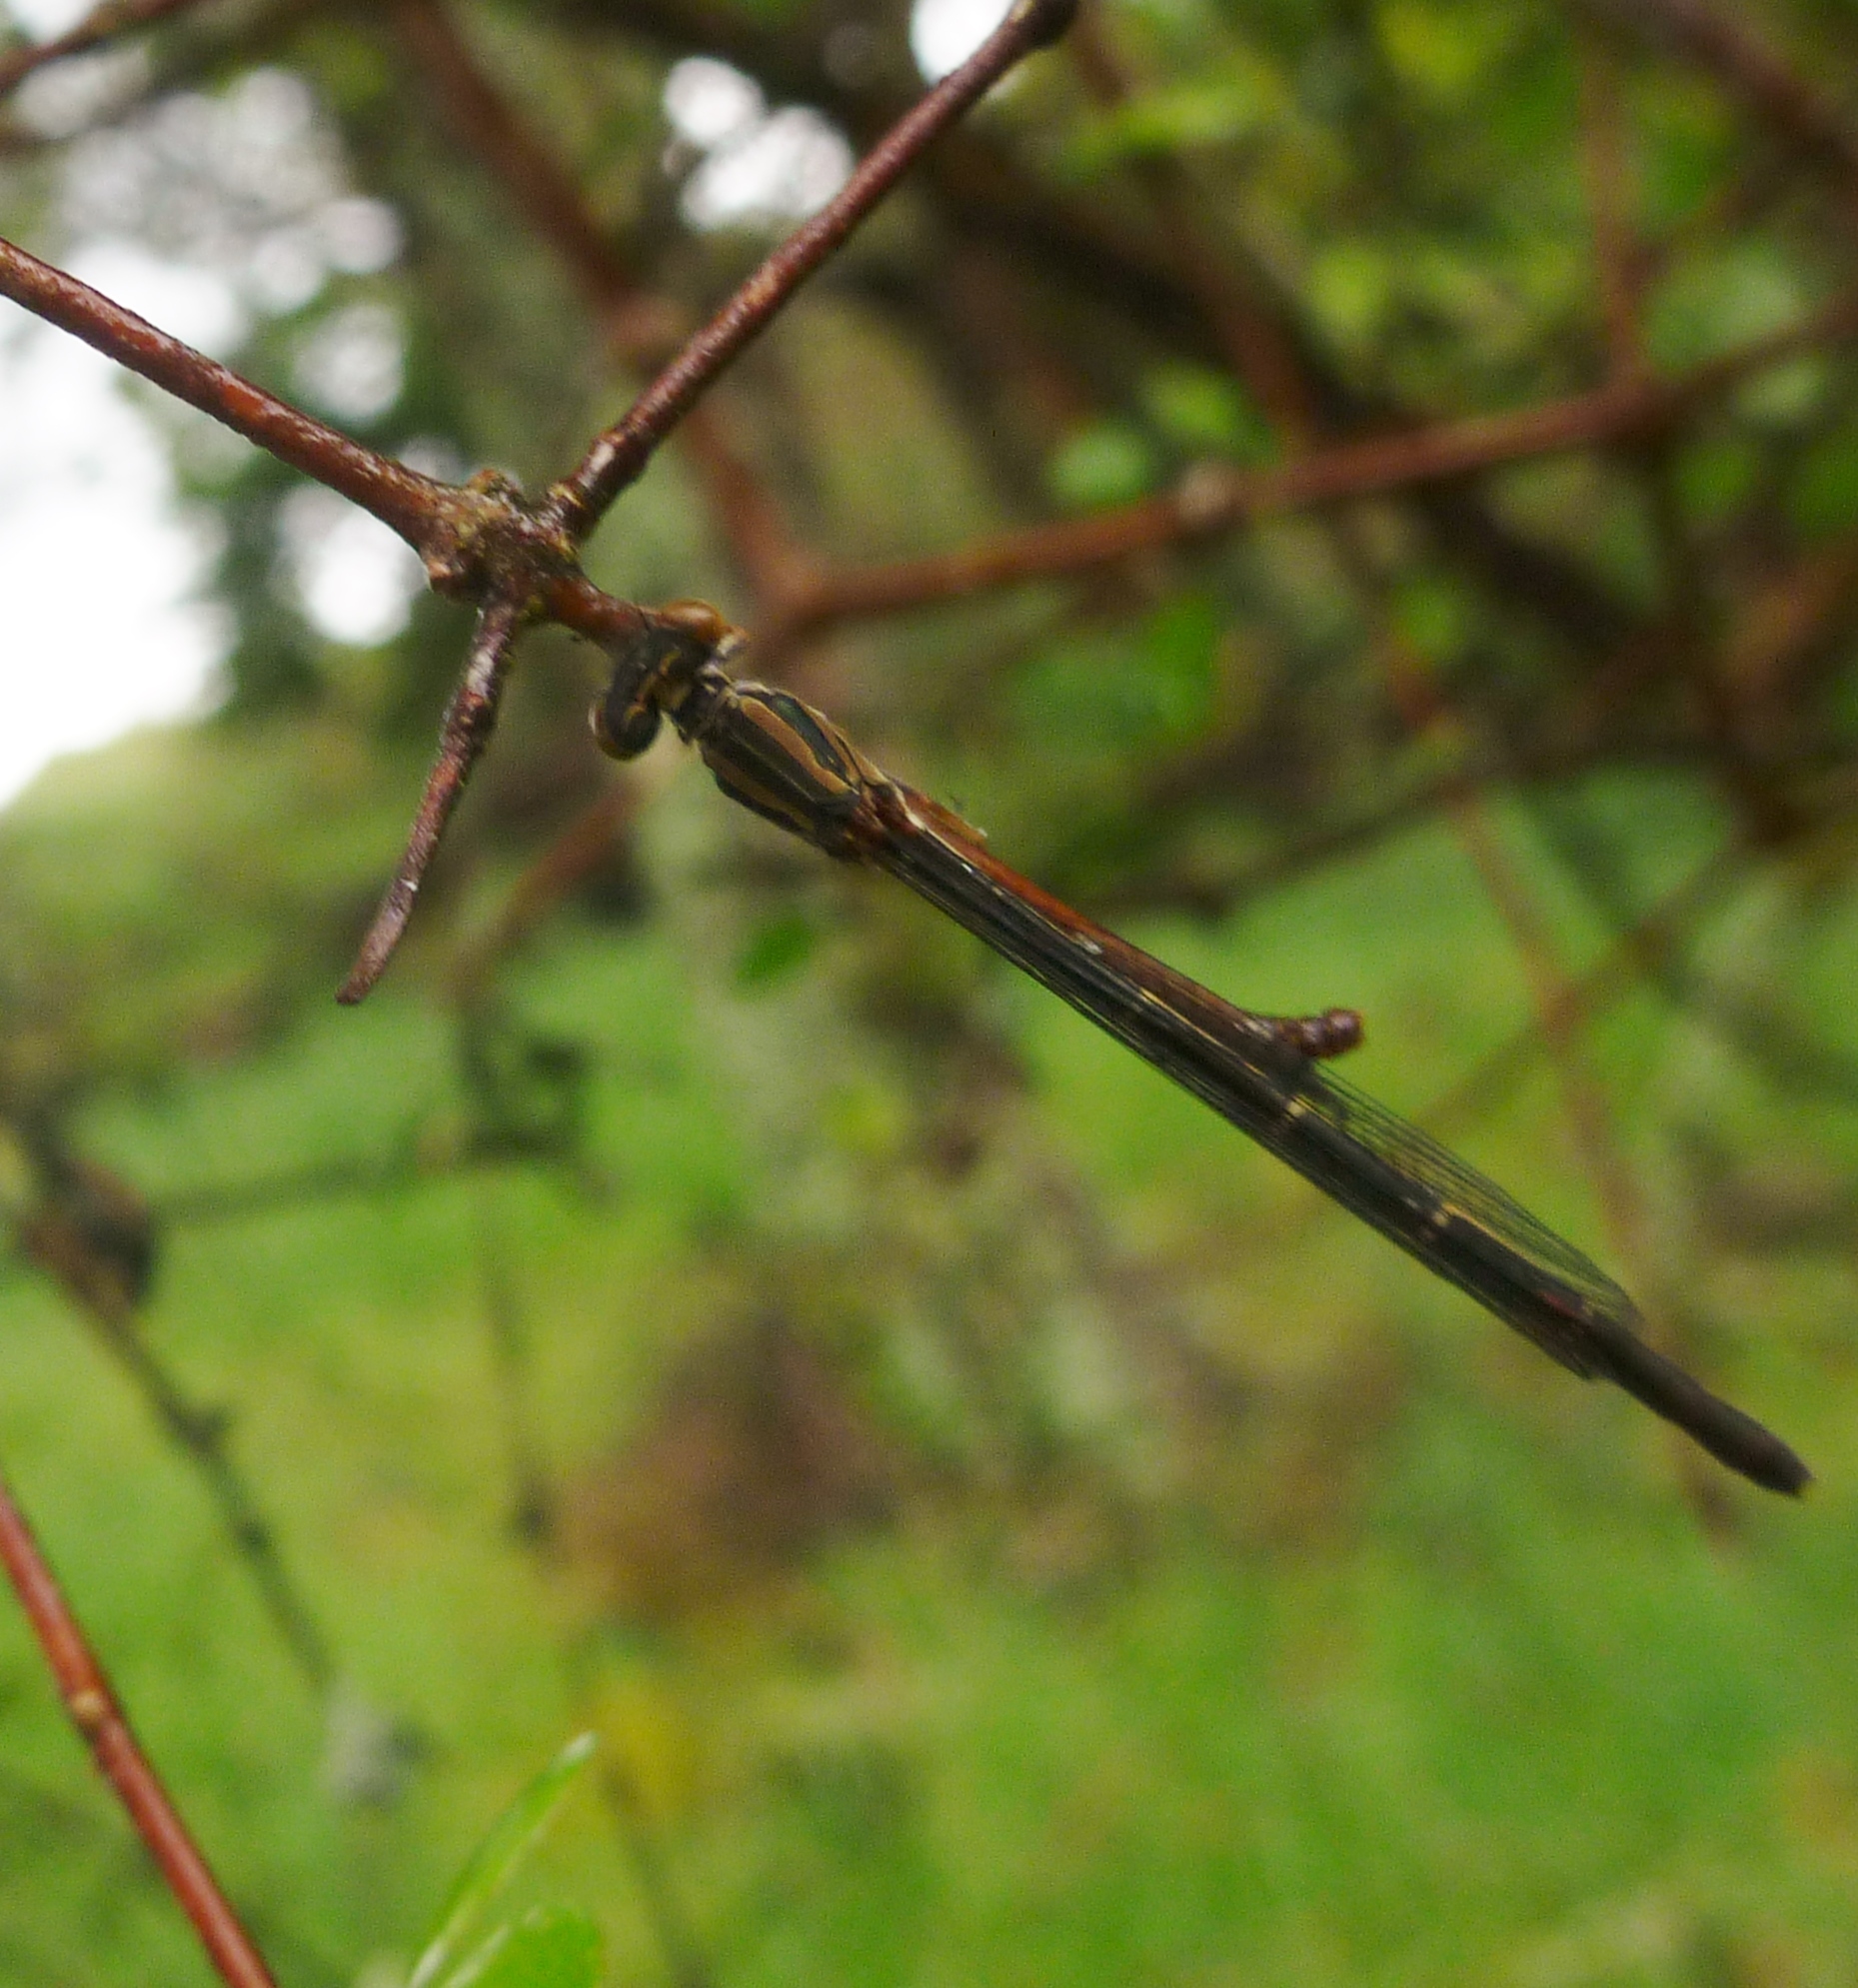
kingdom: Animalia
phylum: Arthropoda
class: Insecta
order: Odonata
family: Coenagrionidae
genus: Xanthocnemis
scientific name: Xanthocnemis zealandica
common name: Common redcoat damselfly
